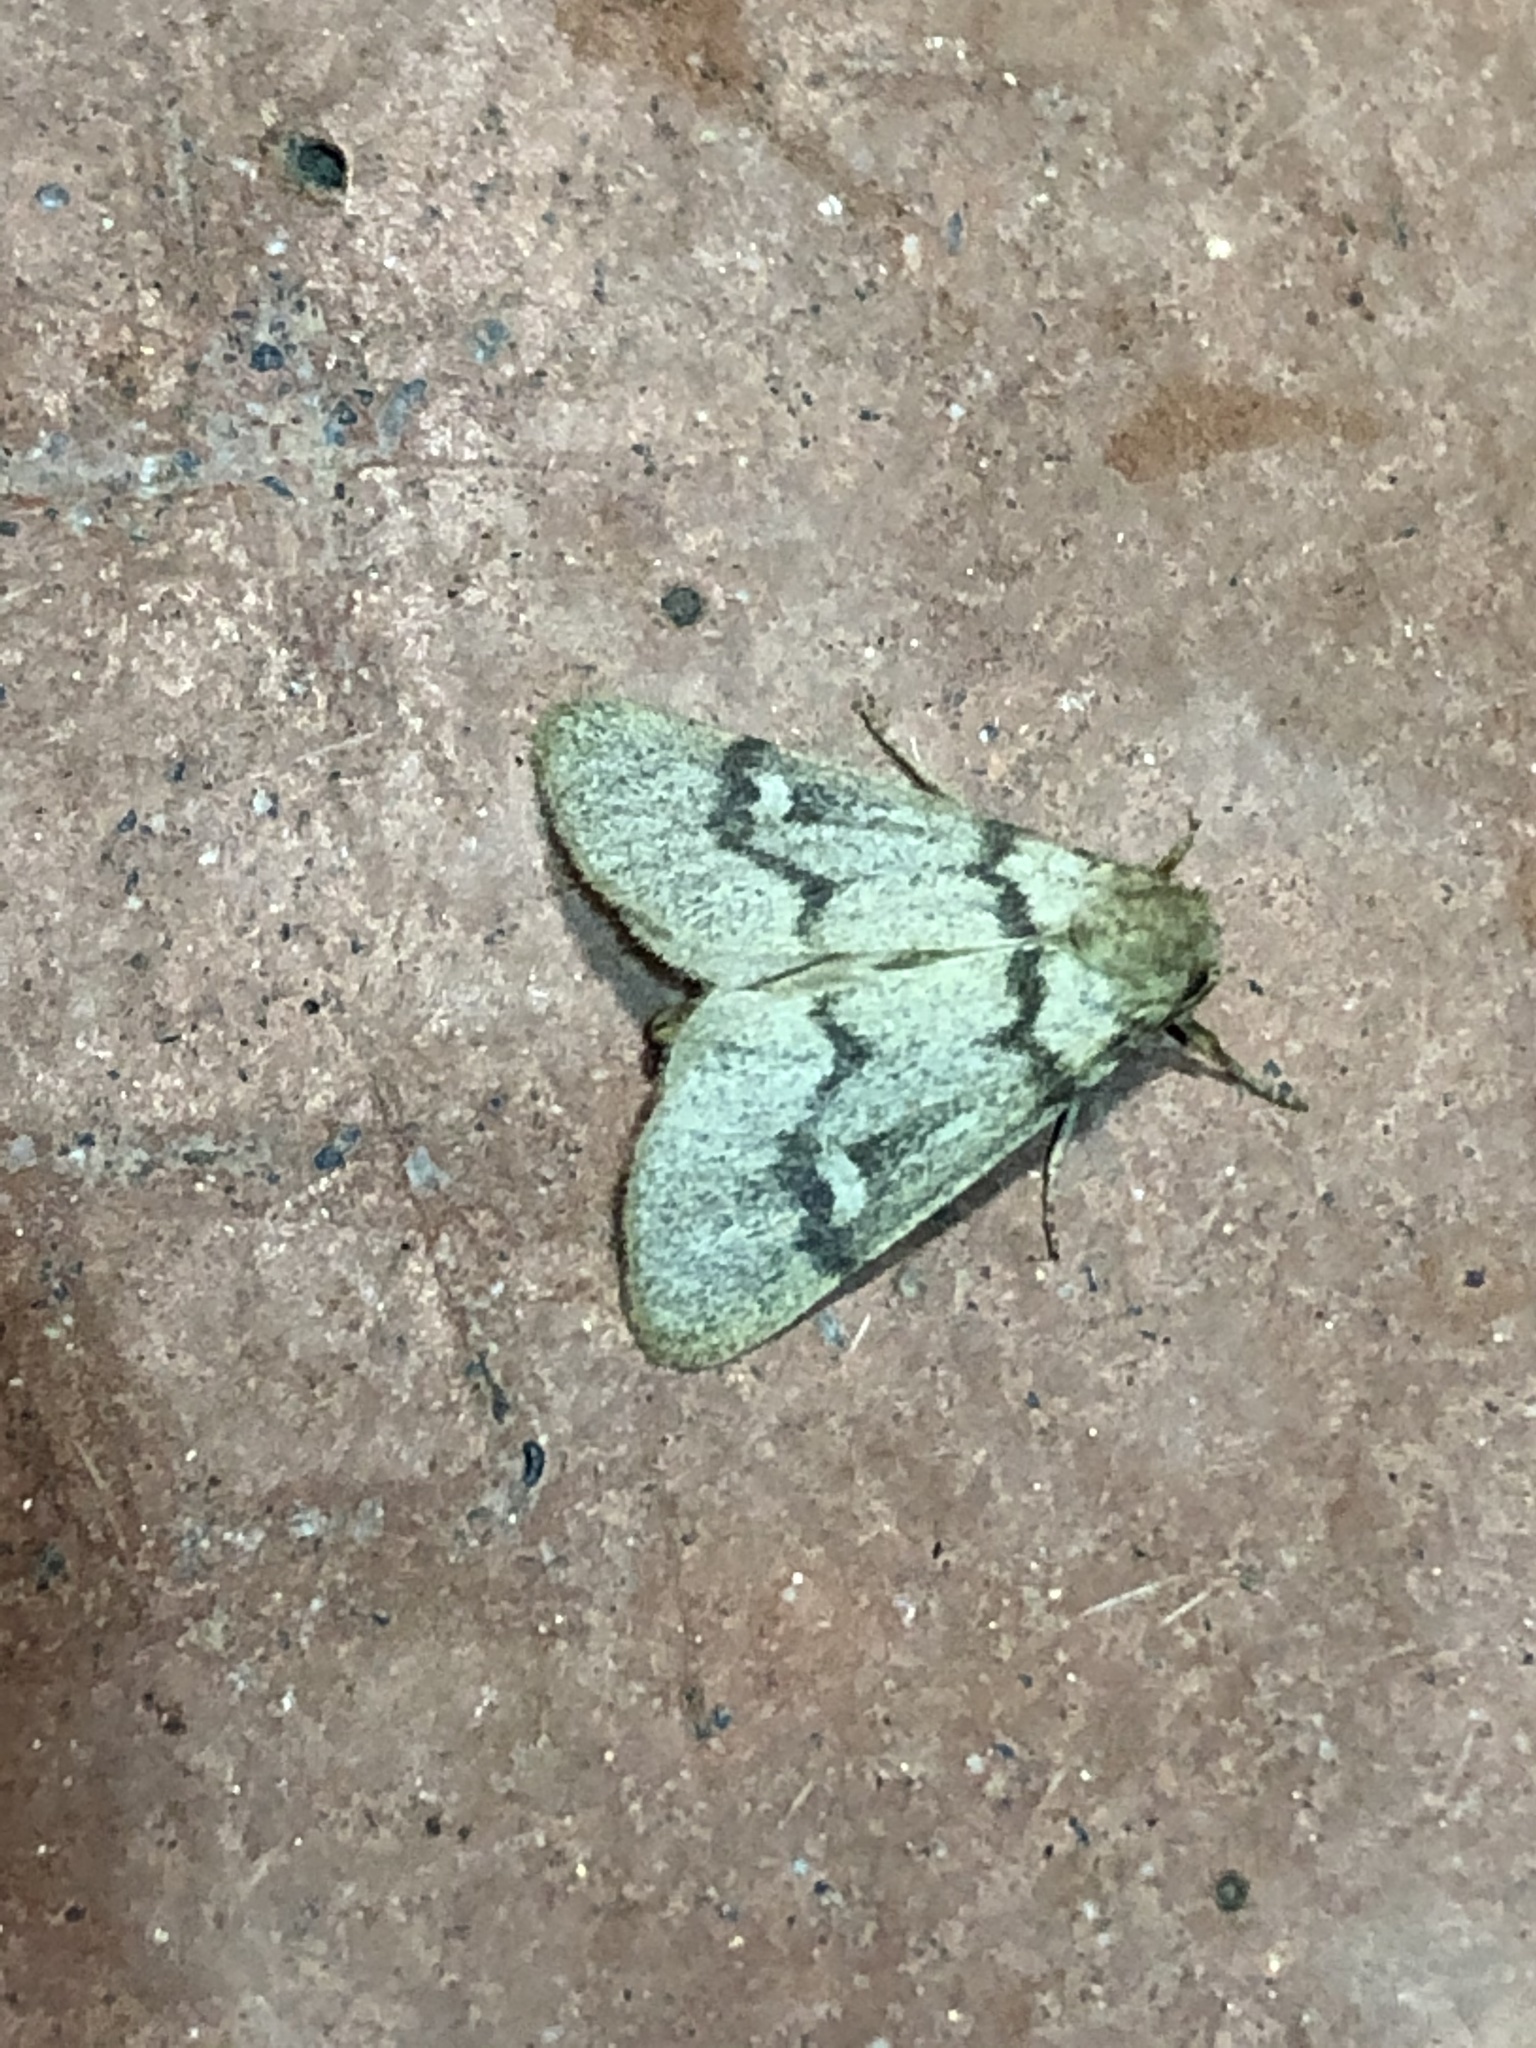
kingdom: Animalia
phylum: Arthropoda
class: Insecta
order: Lepidoptera
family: Noctuidae
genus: Narthecophora
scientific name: Narthecophora pulverea
